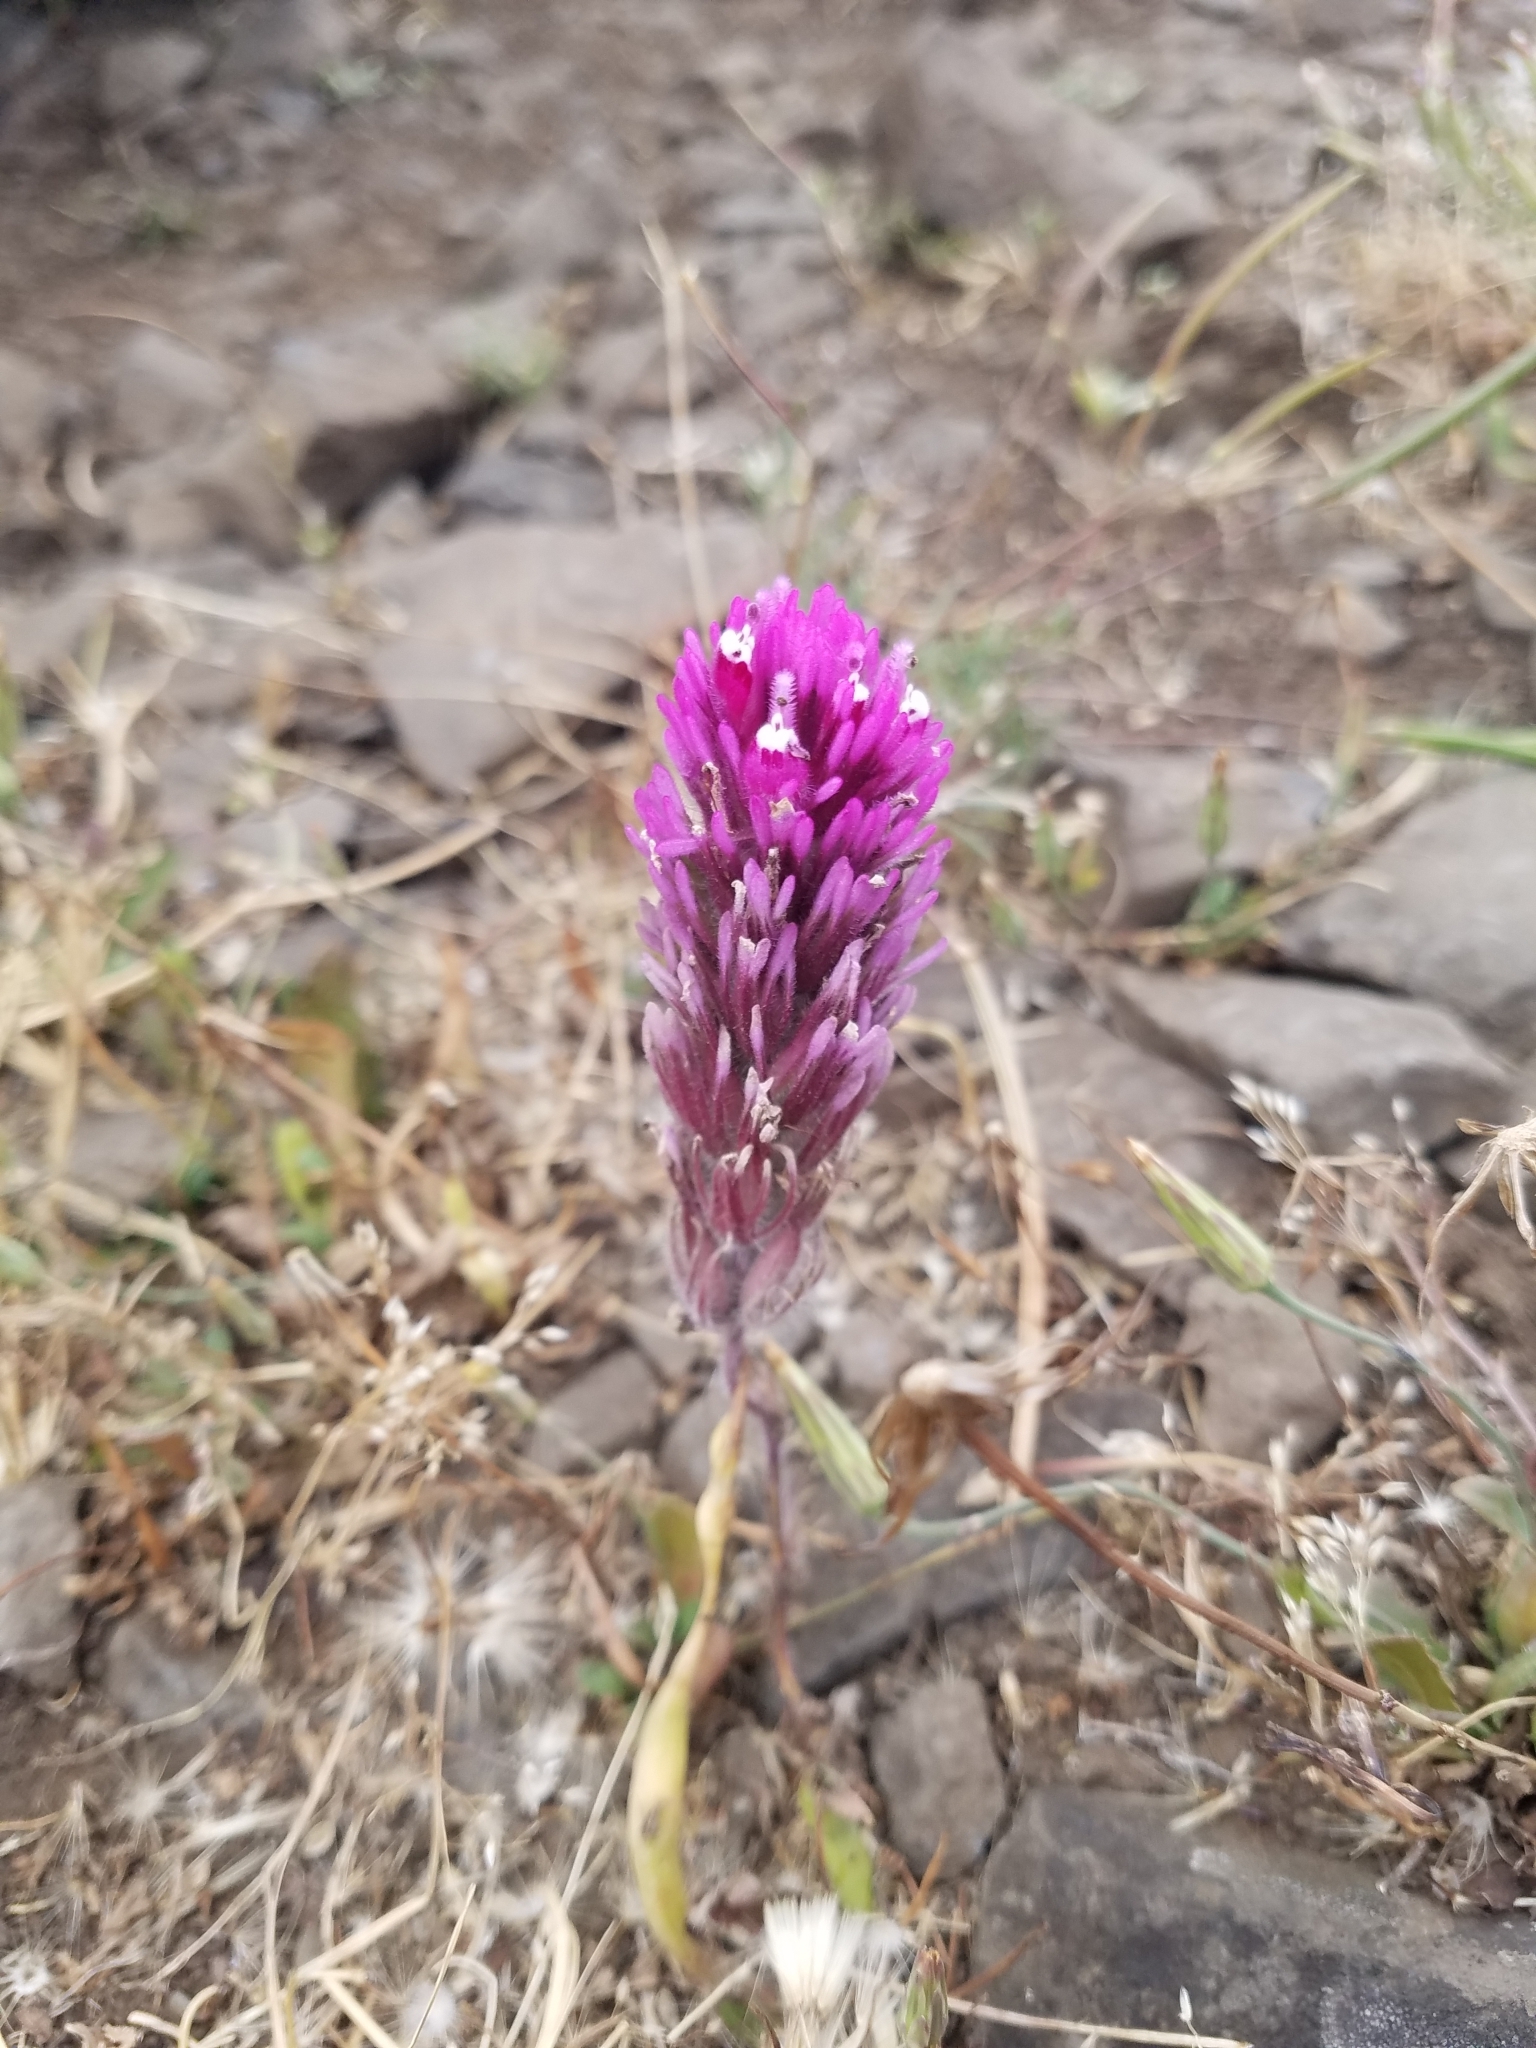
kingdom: Plantae
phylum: Tracheophyta
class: Magnoliopsida
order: Lamiales
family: Orobanchaceae
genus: Castilleja
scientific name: Castilleja exserta
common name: Purple owl-clover
